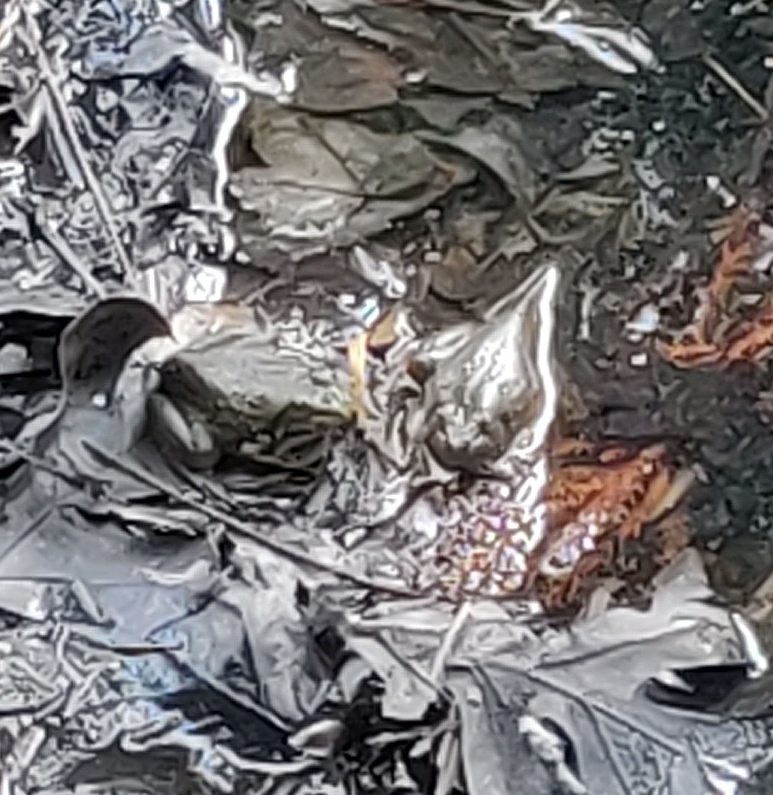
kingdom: Animalia
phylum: Chordata
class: Amphibia
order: Anura
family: Ranidae
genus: Lithobates
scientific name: Lithobates catesbeianus
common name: American bullfrog
